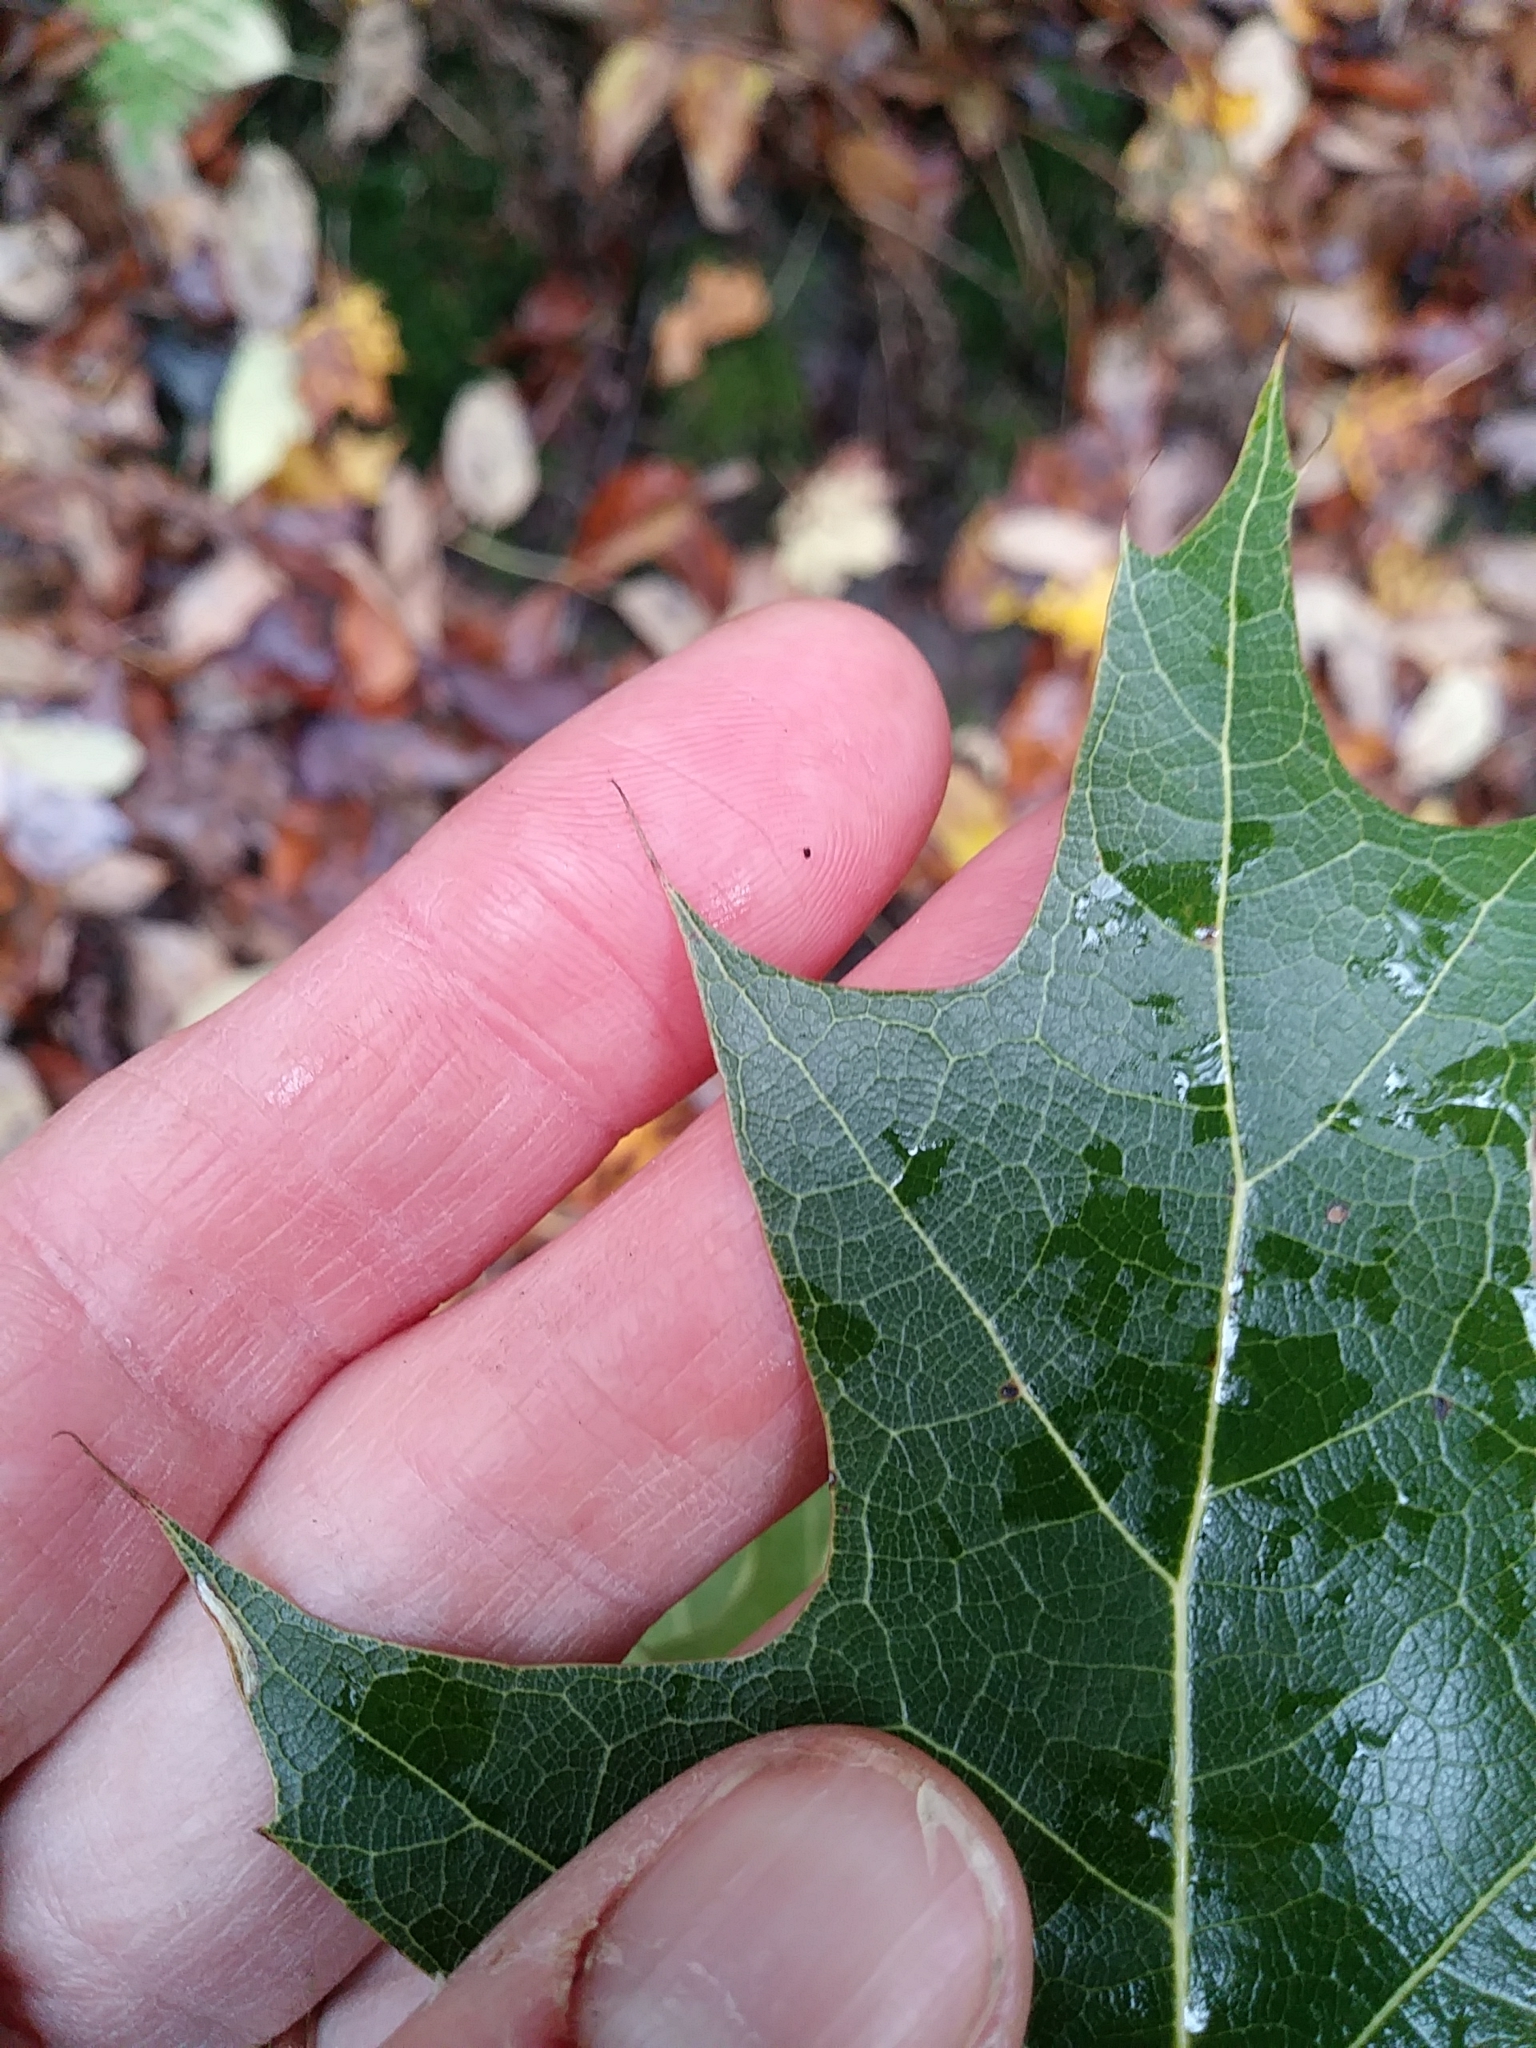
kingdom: Plantae
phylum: Tracheophyta
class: Magnoliopsida
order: Fagales
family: Fagaceae
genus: Quercus
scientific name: Quercus rubra
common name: Red oak
